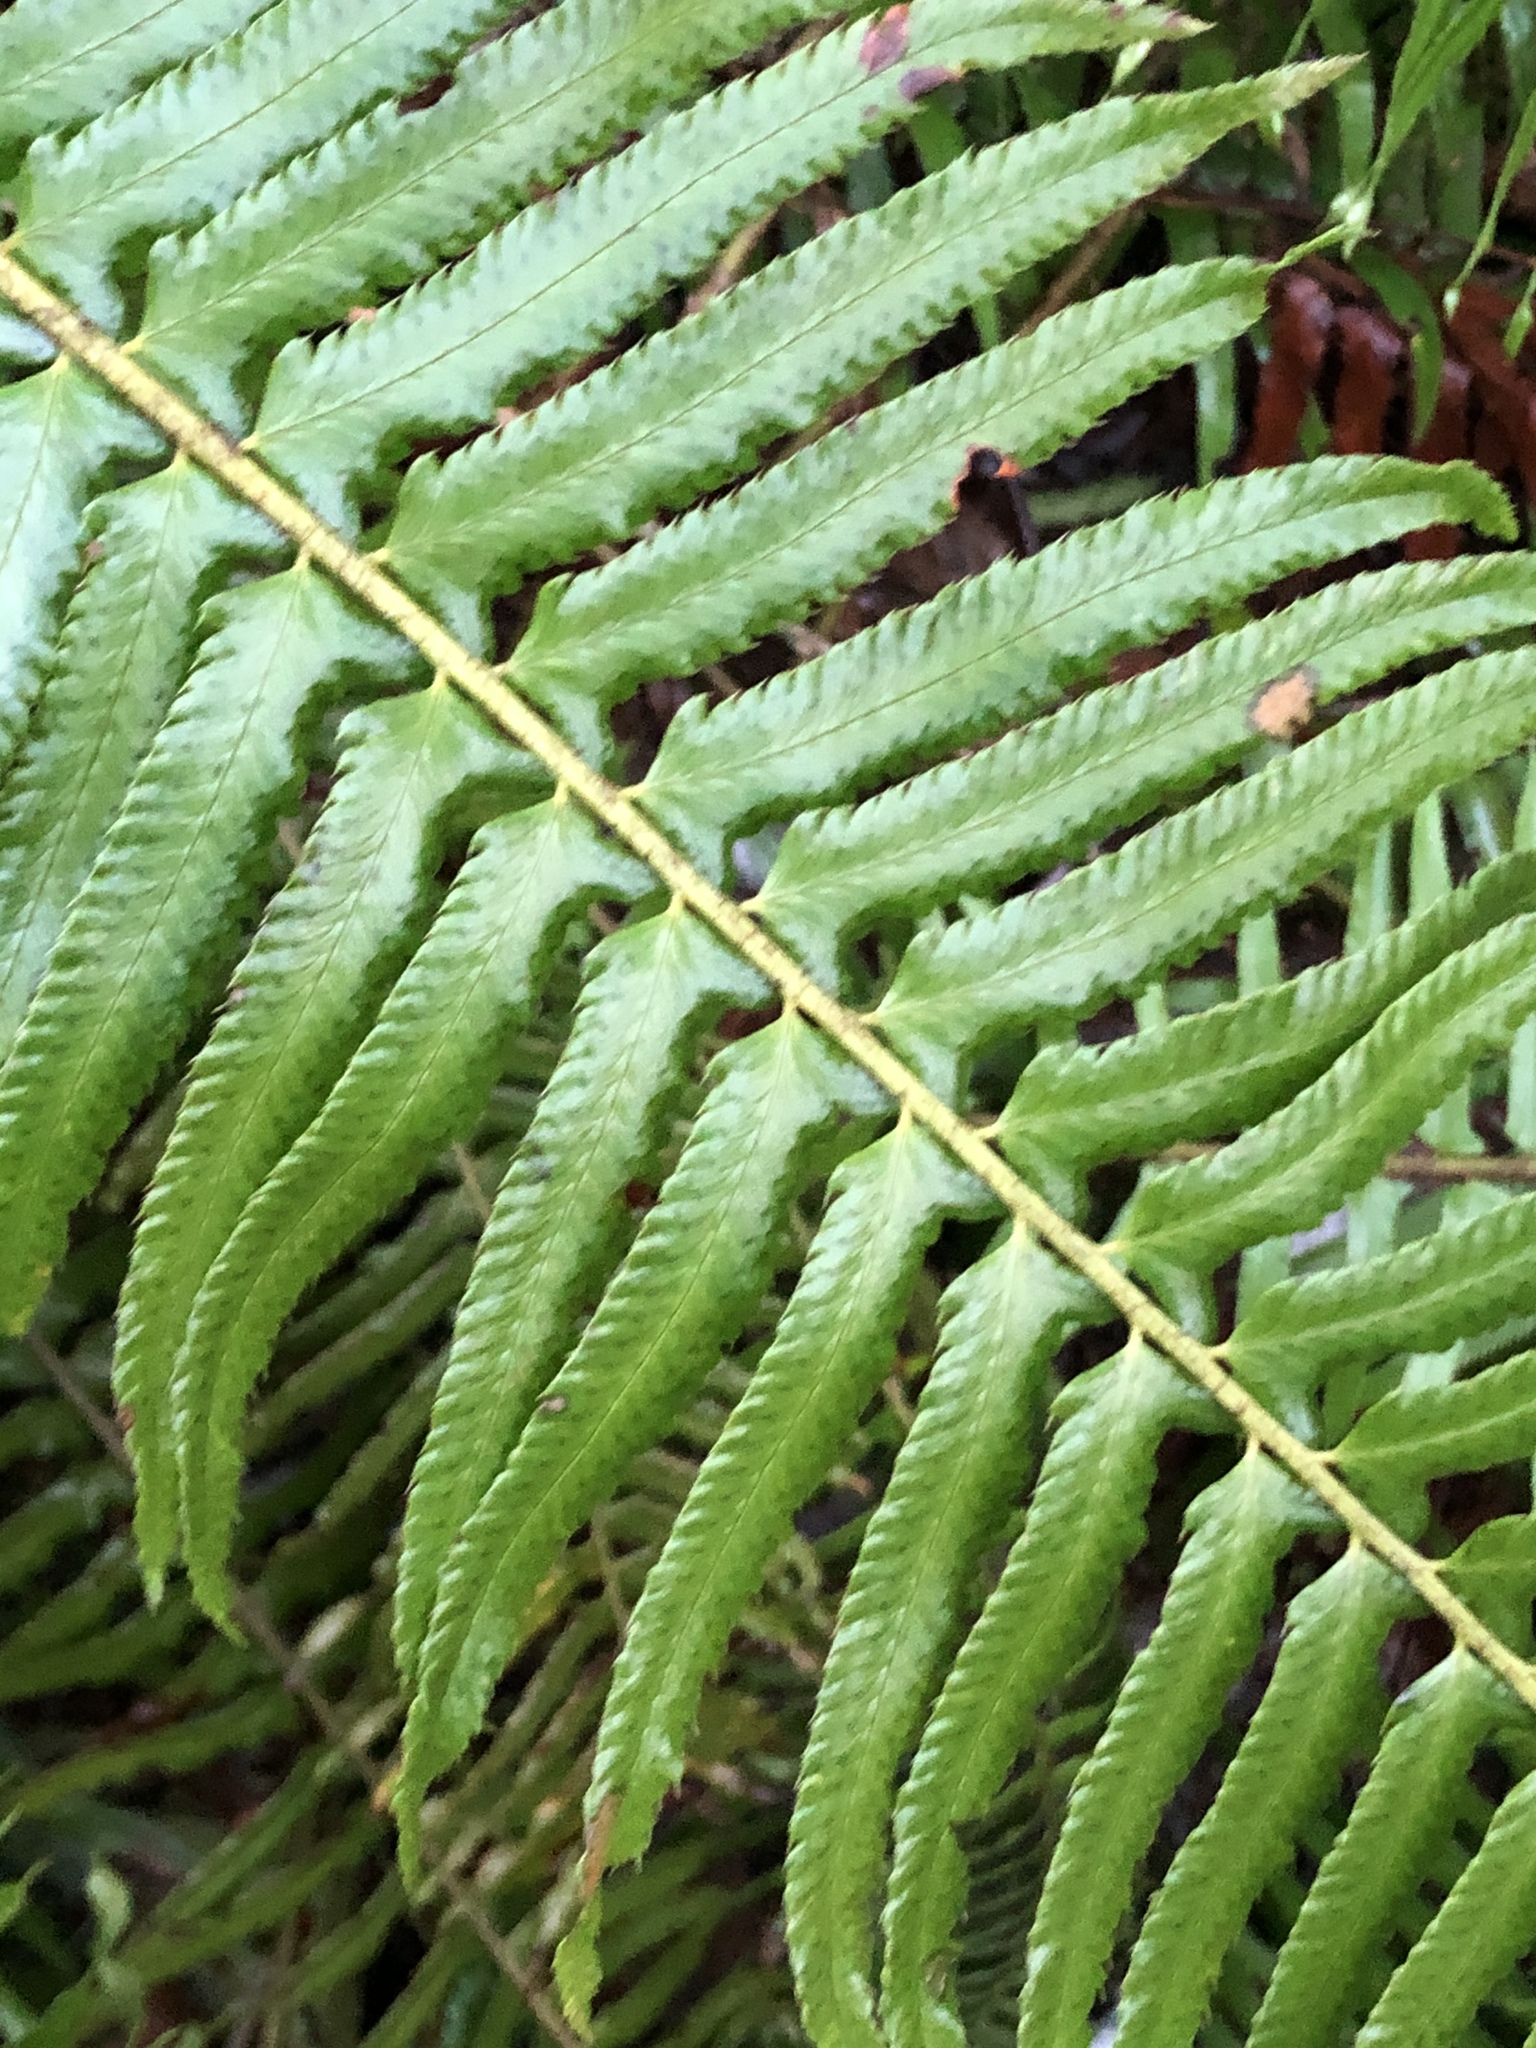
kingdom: Plantae
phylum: Tracheophyta
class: Polypodiopsida
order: Polypodiales
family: Dryopteridaceae
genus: Polystichum
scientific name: Polystichum munitum
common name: Western sword-fern
